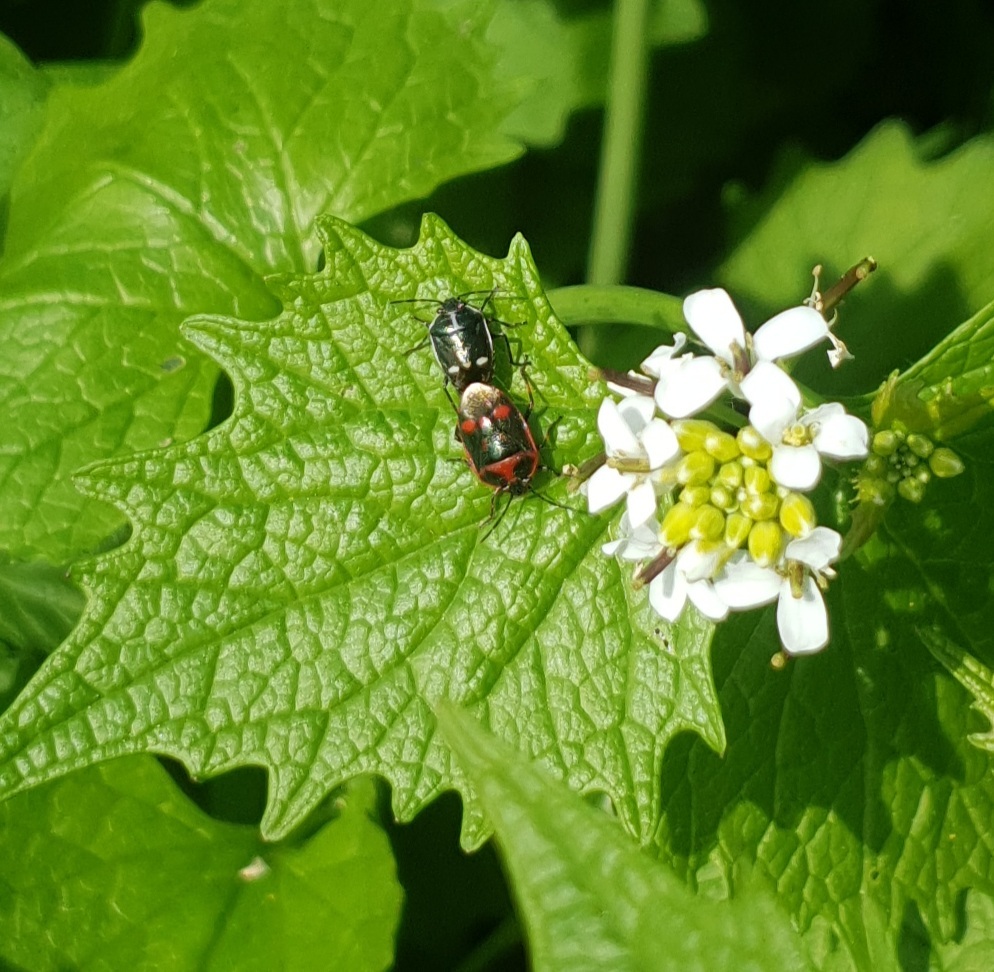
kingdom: Animalia
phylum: Arthropoda
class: Insecta
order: Hemiptera
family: Pentatomidae
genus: Eurydema
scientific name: Eurydema oleracea
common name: Cabbage bug
